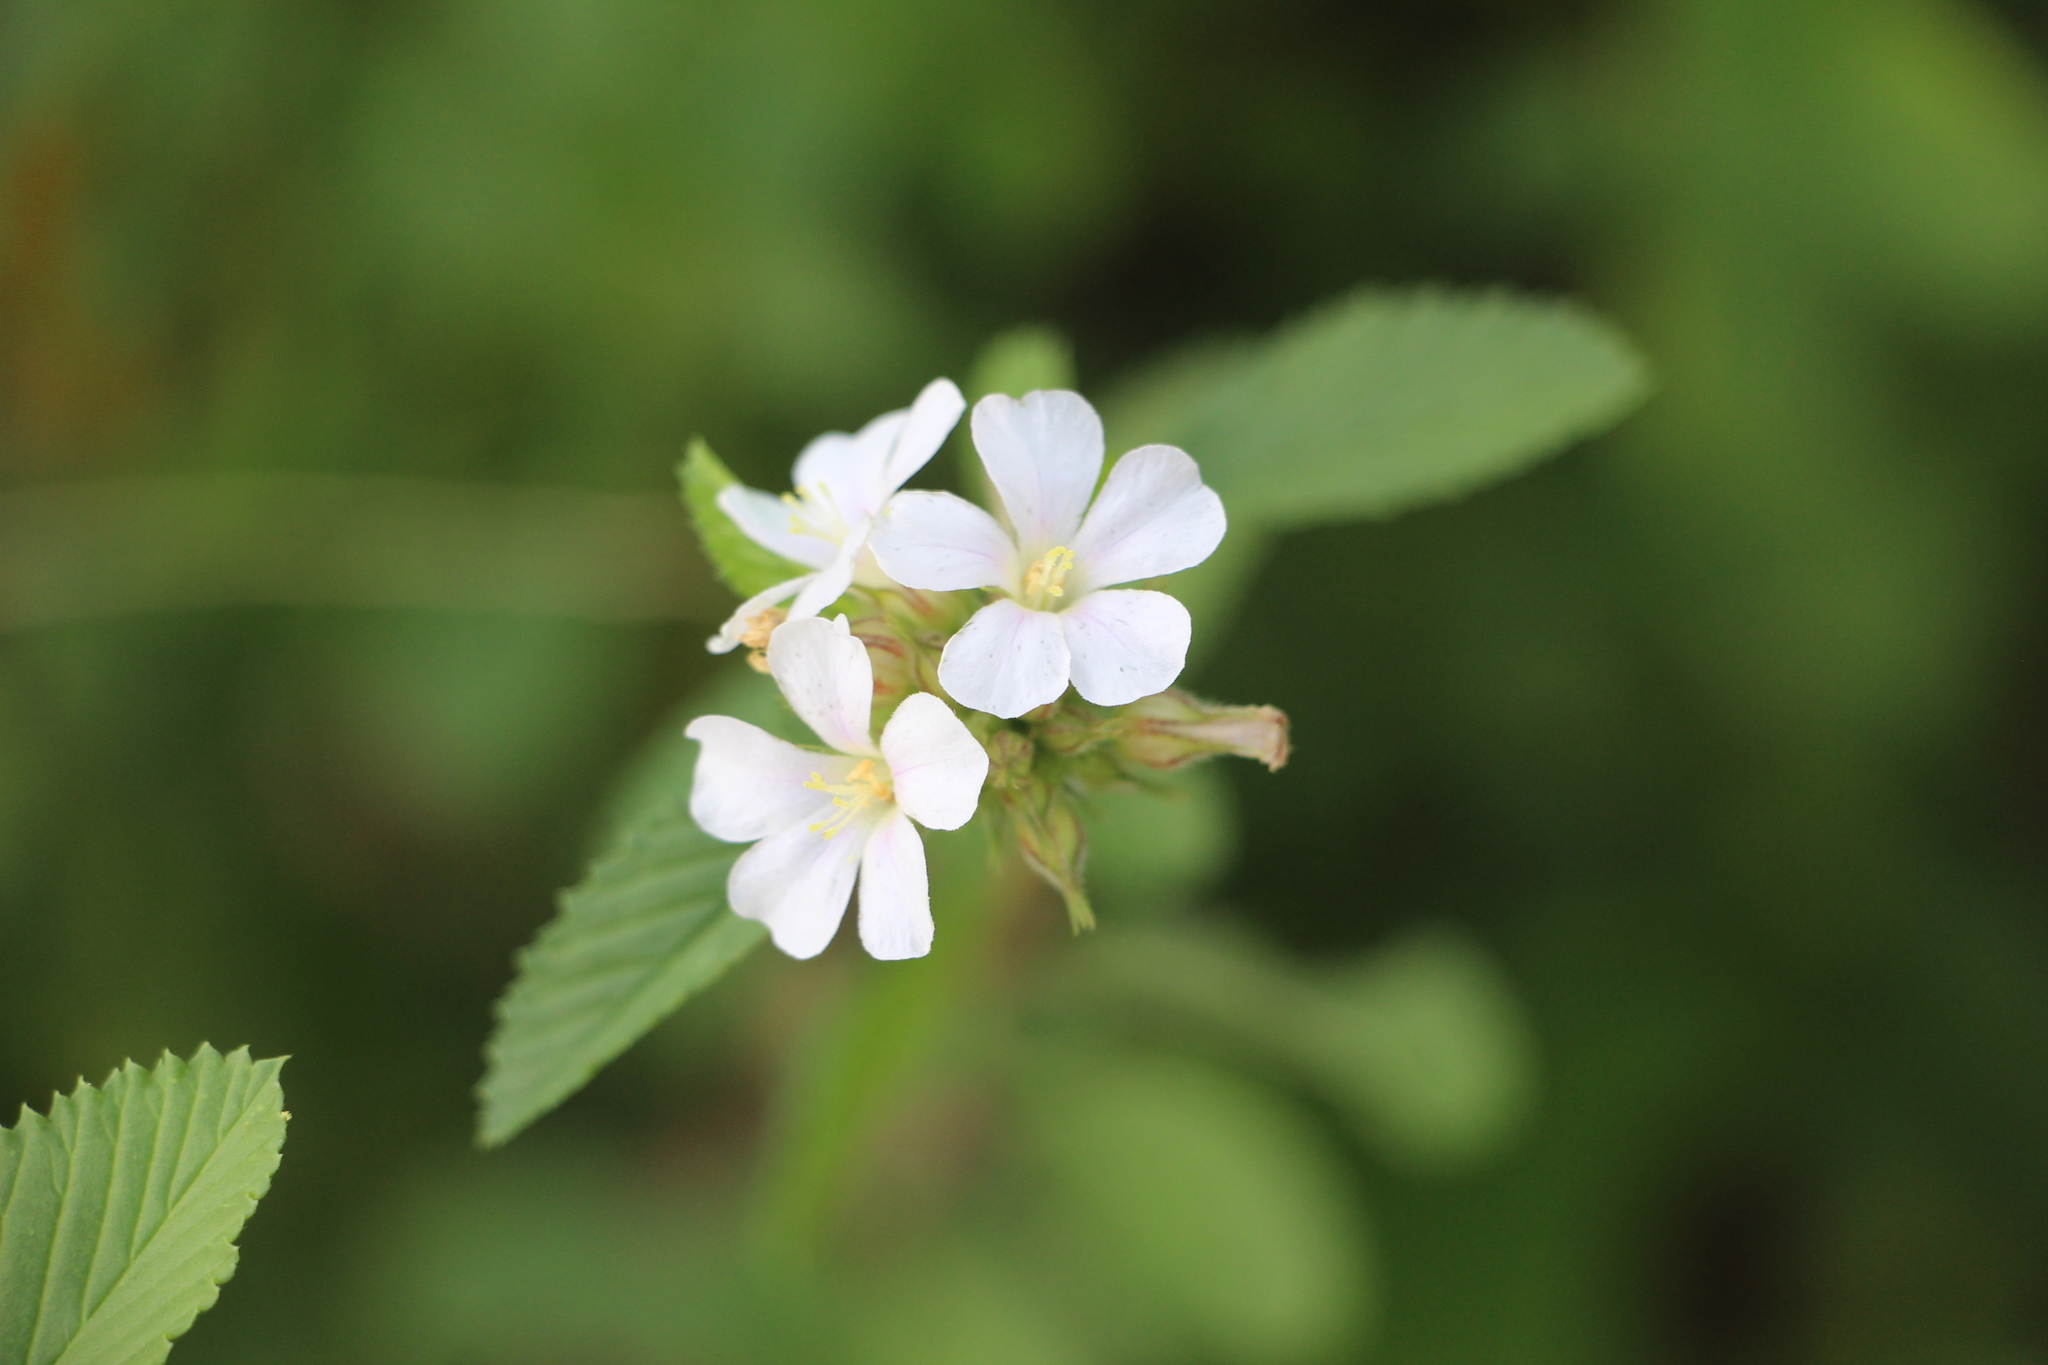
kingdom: Plantae
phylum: Tracheophyta
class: Magnoliopsida
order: Malvales
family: Malvaceae
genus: Melochia
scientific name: Melochia parvifolia
